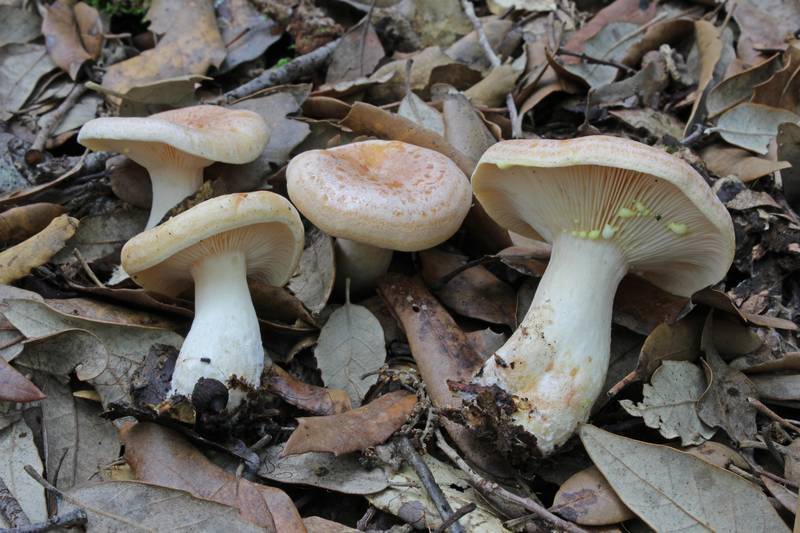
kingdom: Fungi
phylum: Basidiomycota
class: Agaricomycetes
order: Russulales
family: Russulaceae
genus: Lactarius
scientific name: Lactarius chrysorrheus
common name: Yellowdrop milkcap
